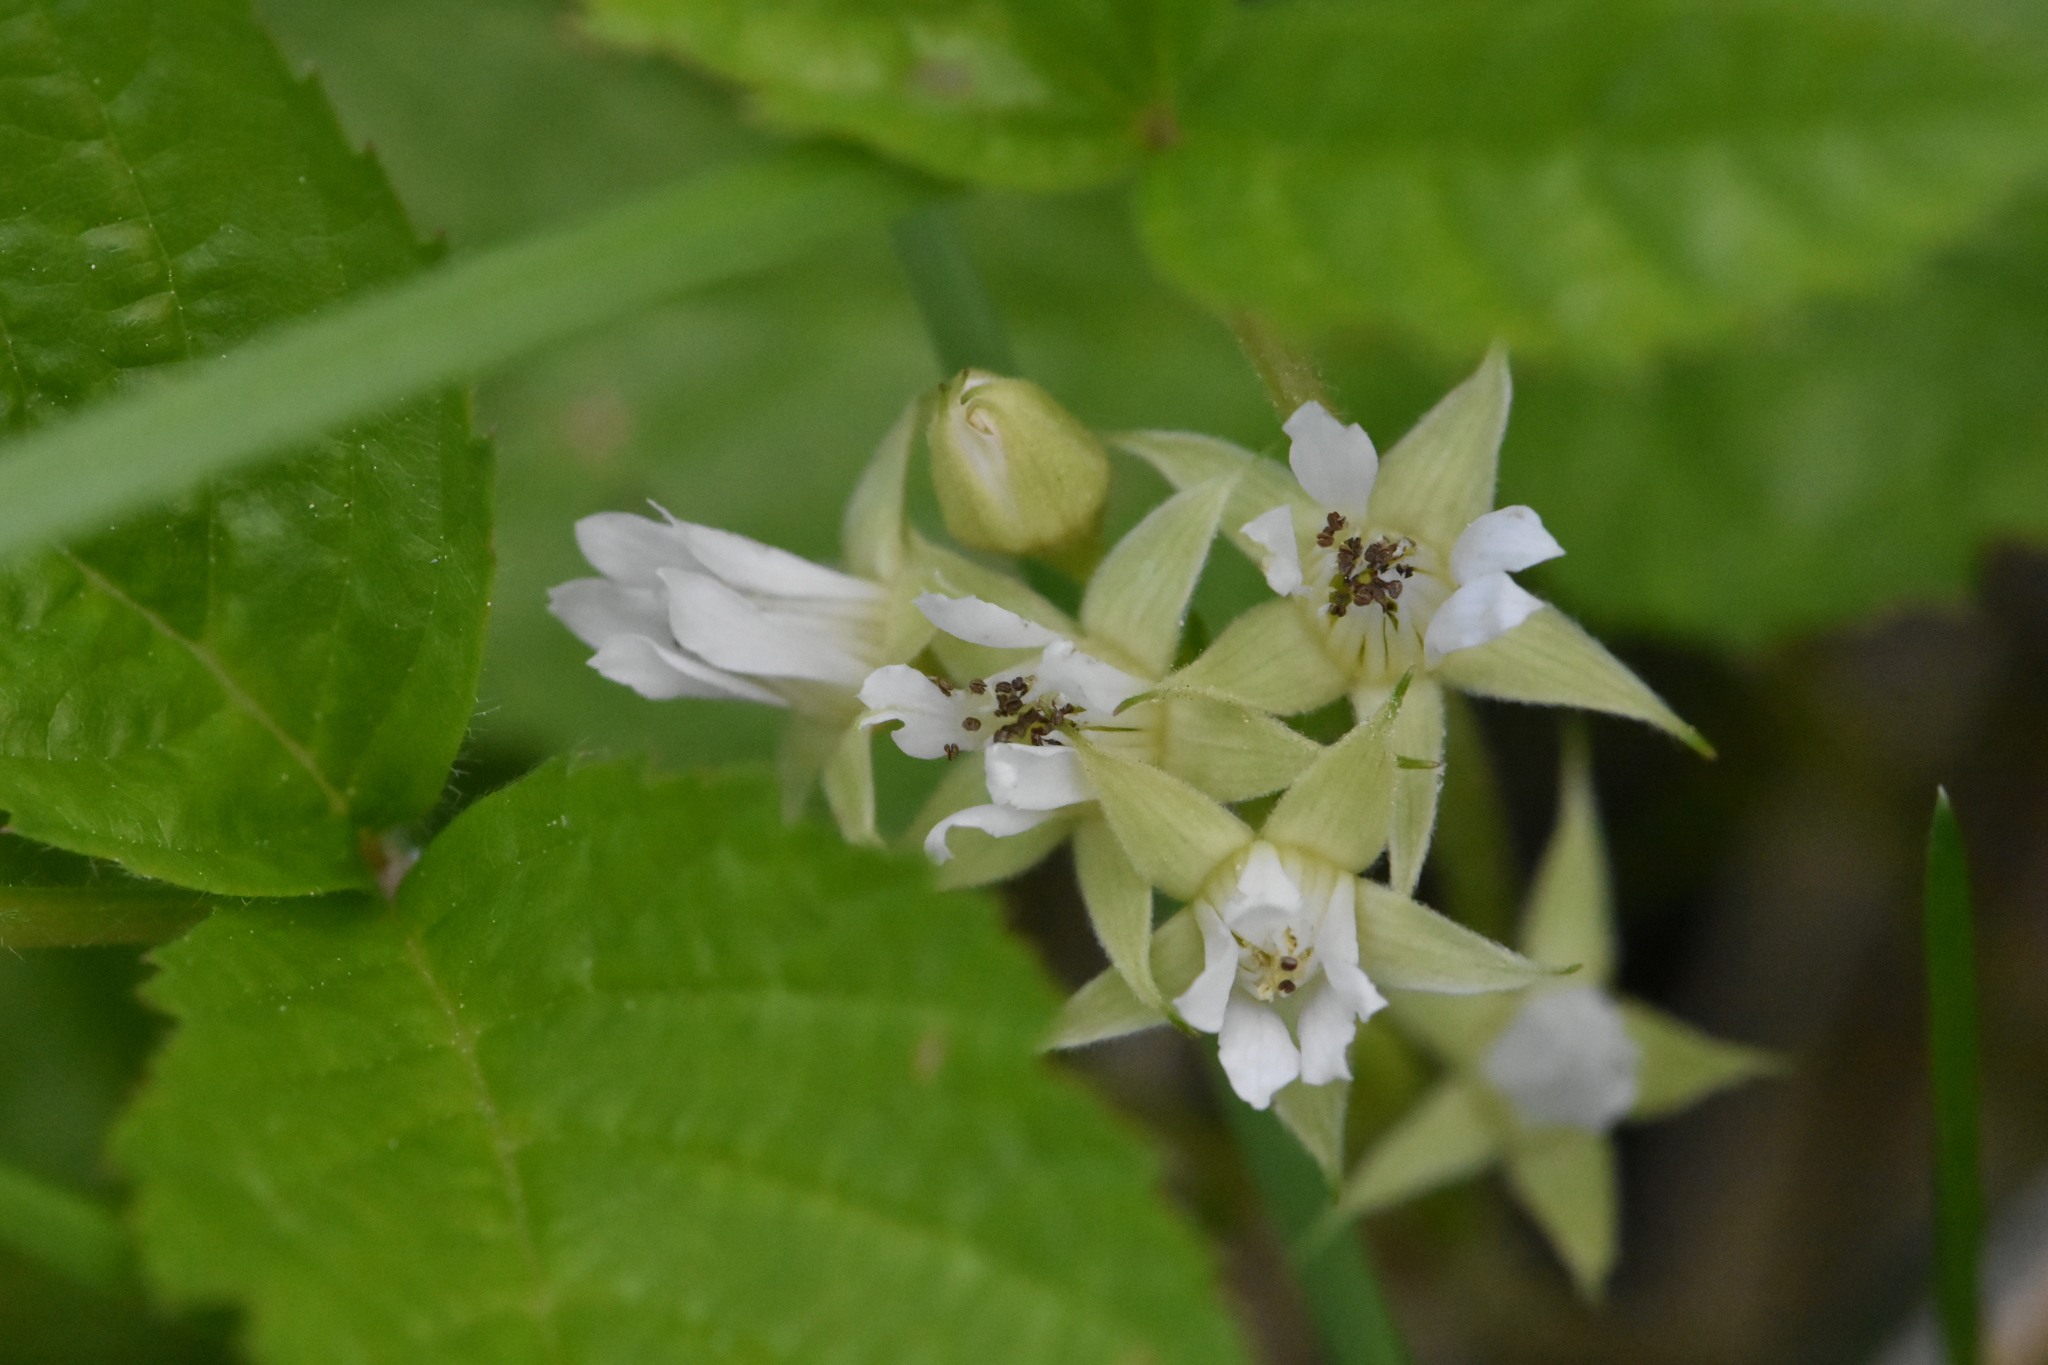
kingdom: Plantae
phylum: Tracheophyta
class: Magnoliopsida
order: Rosales
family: Rosaceae
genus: Rubus
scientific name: Rubus saxatilis
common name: Stone bramble
